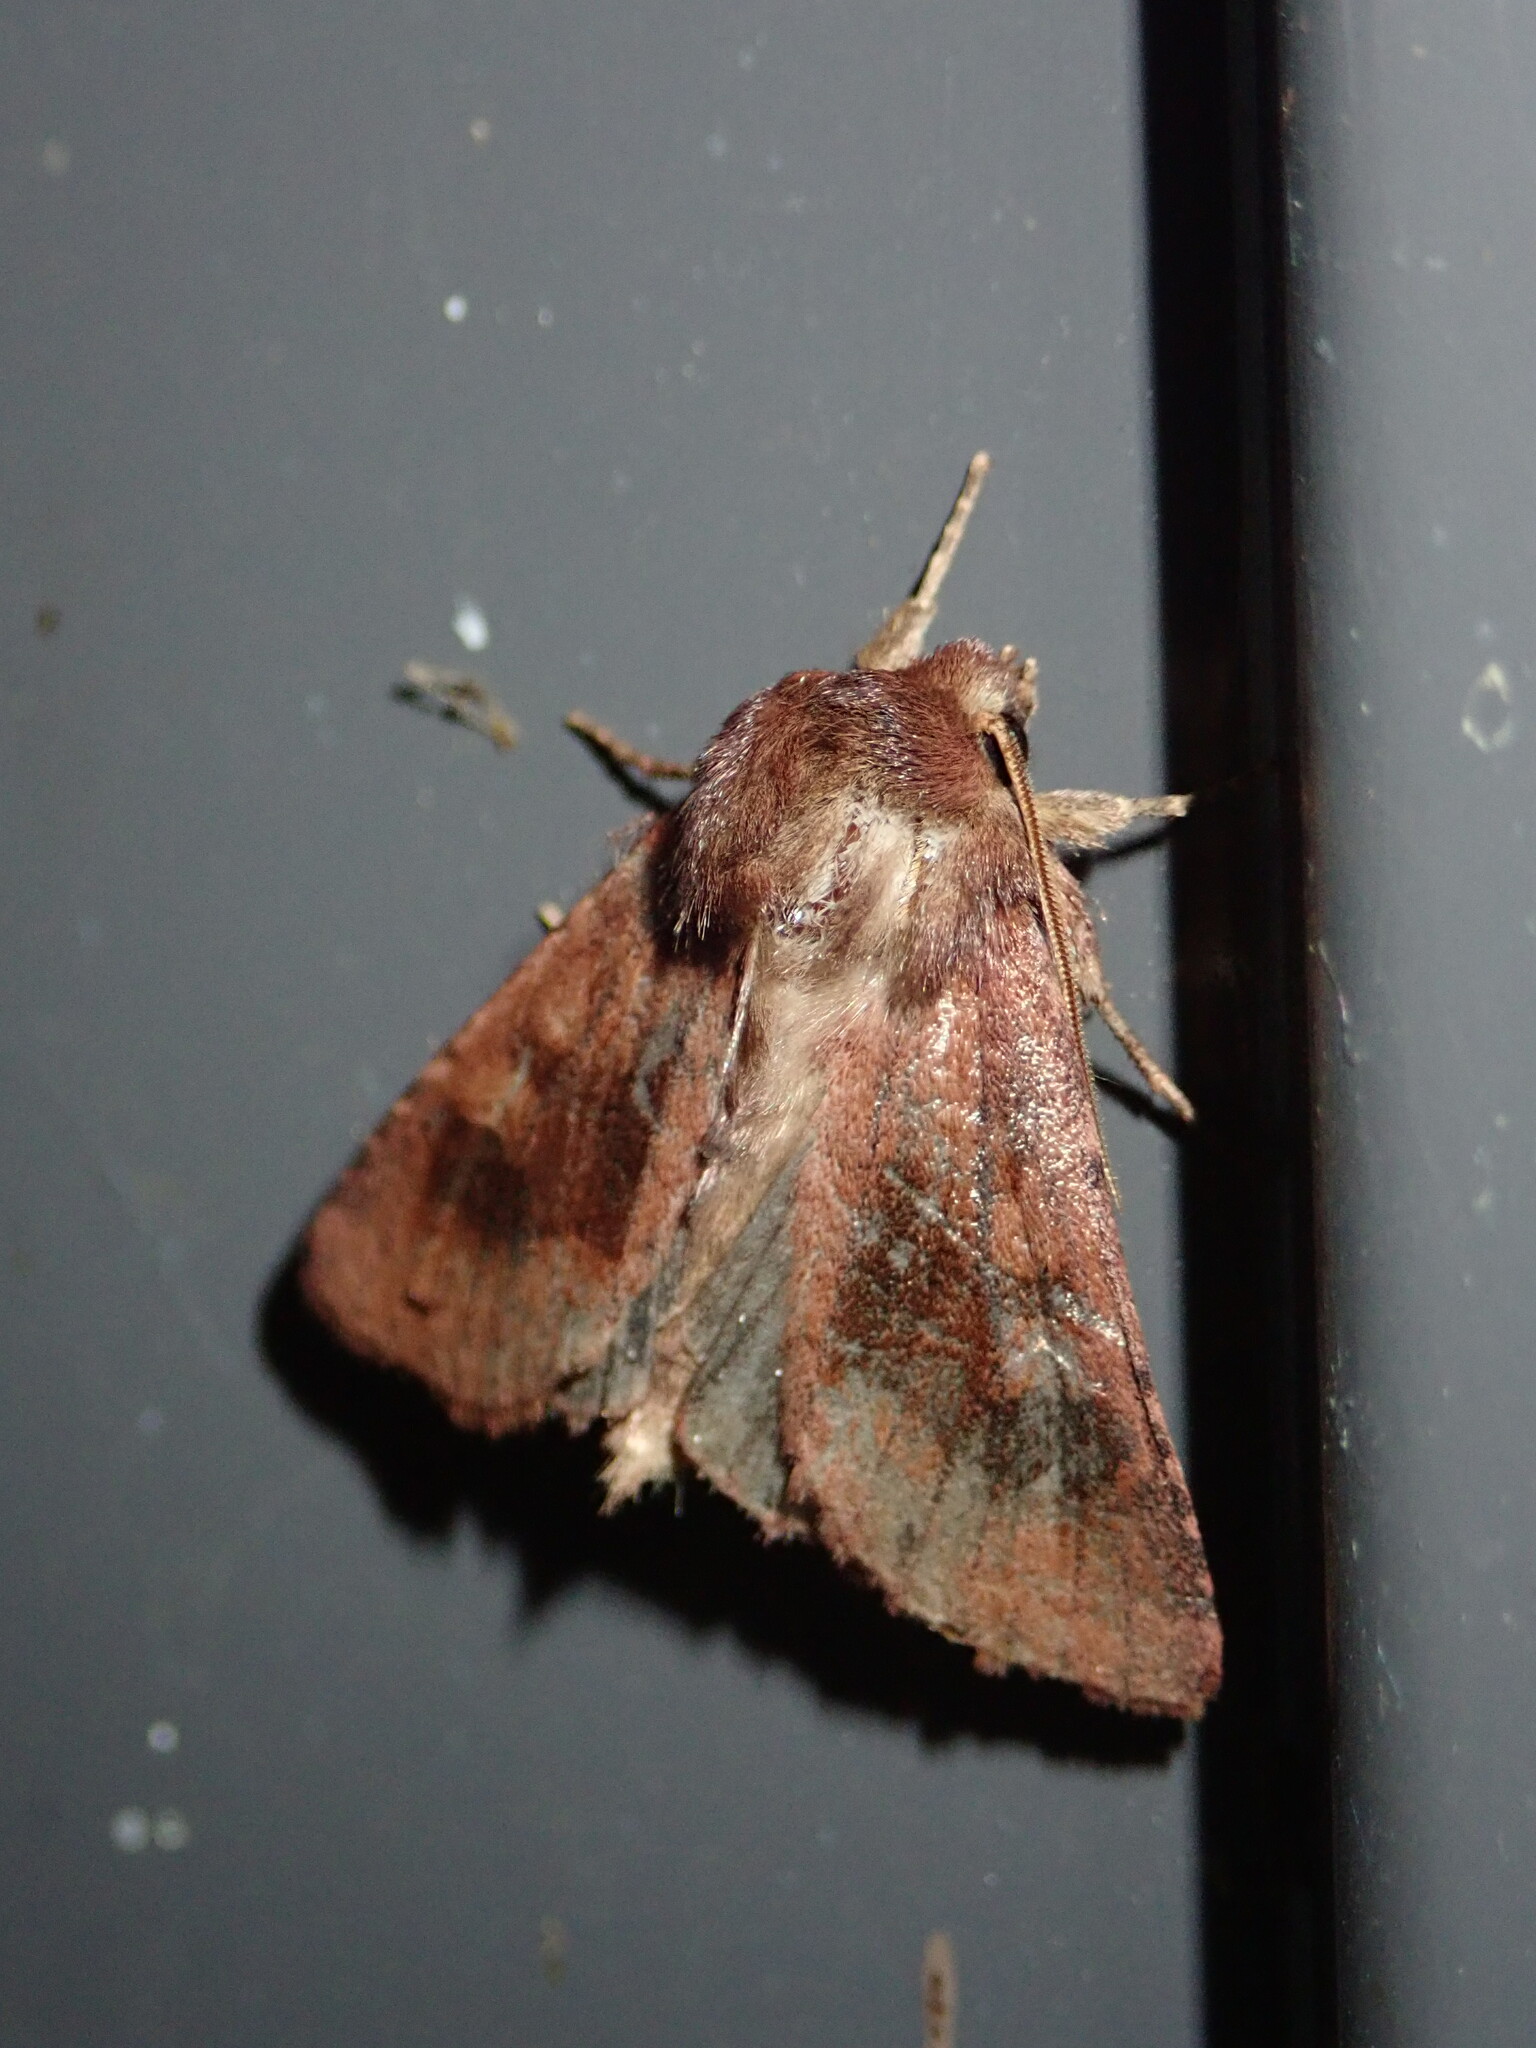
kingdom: Animalia
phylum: Arthropoda
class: Insecta
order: Lepidoptera
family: Noctuidae
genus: Nephelodes
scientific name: Nephelodes minians
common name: Bronzed cutworm
